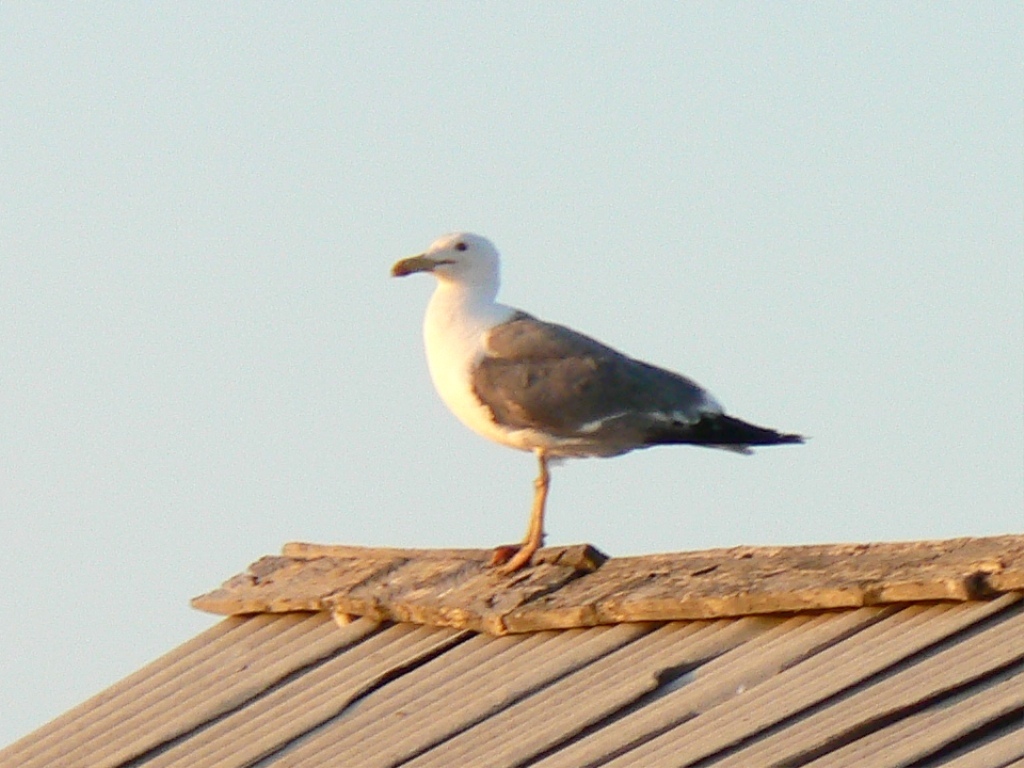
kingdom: Animalia
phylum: Chordata
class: Aves
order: Charadriiformes
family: Laridae
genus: Larus
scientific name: Larus fuscus
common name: Lesser black-backed gull
